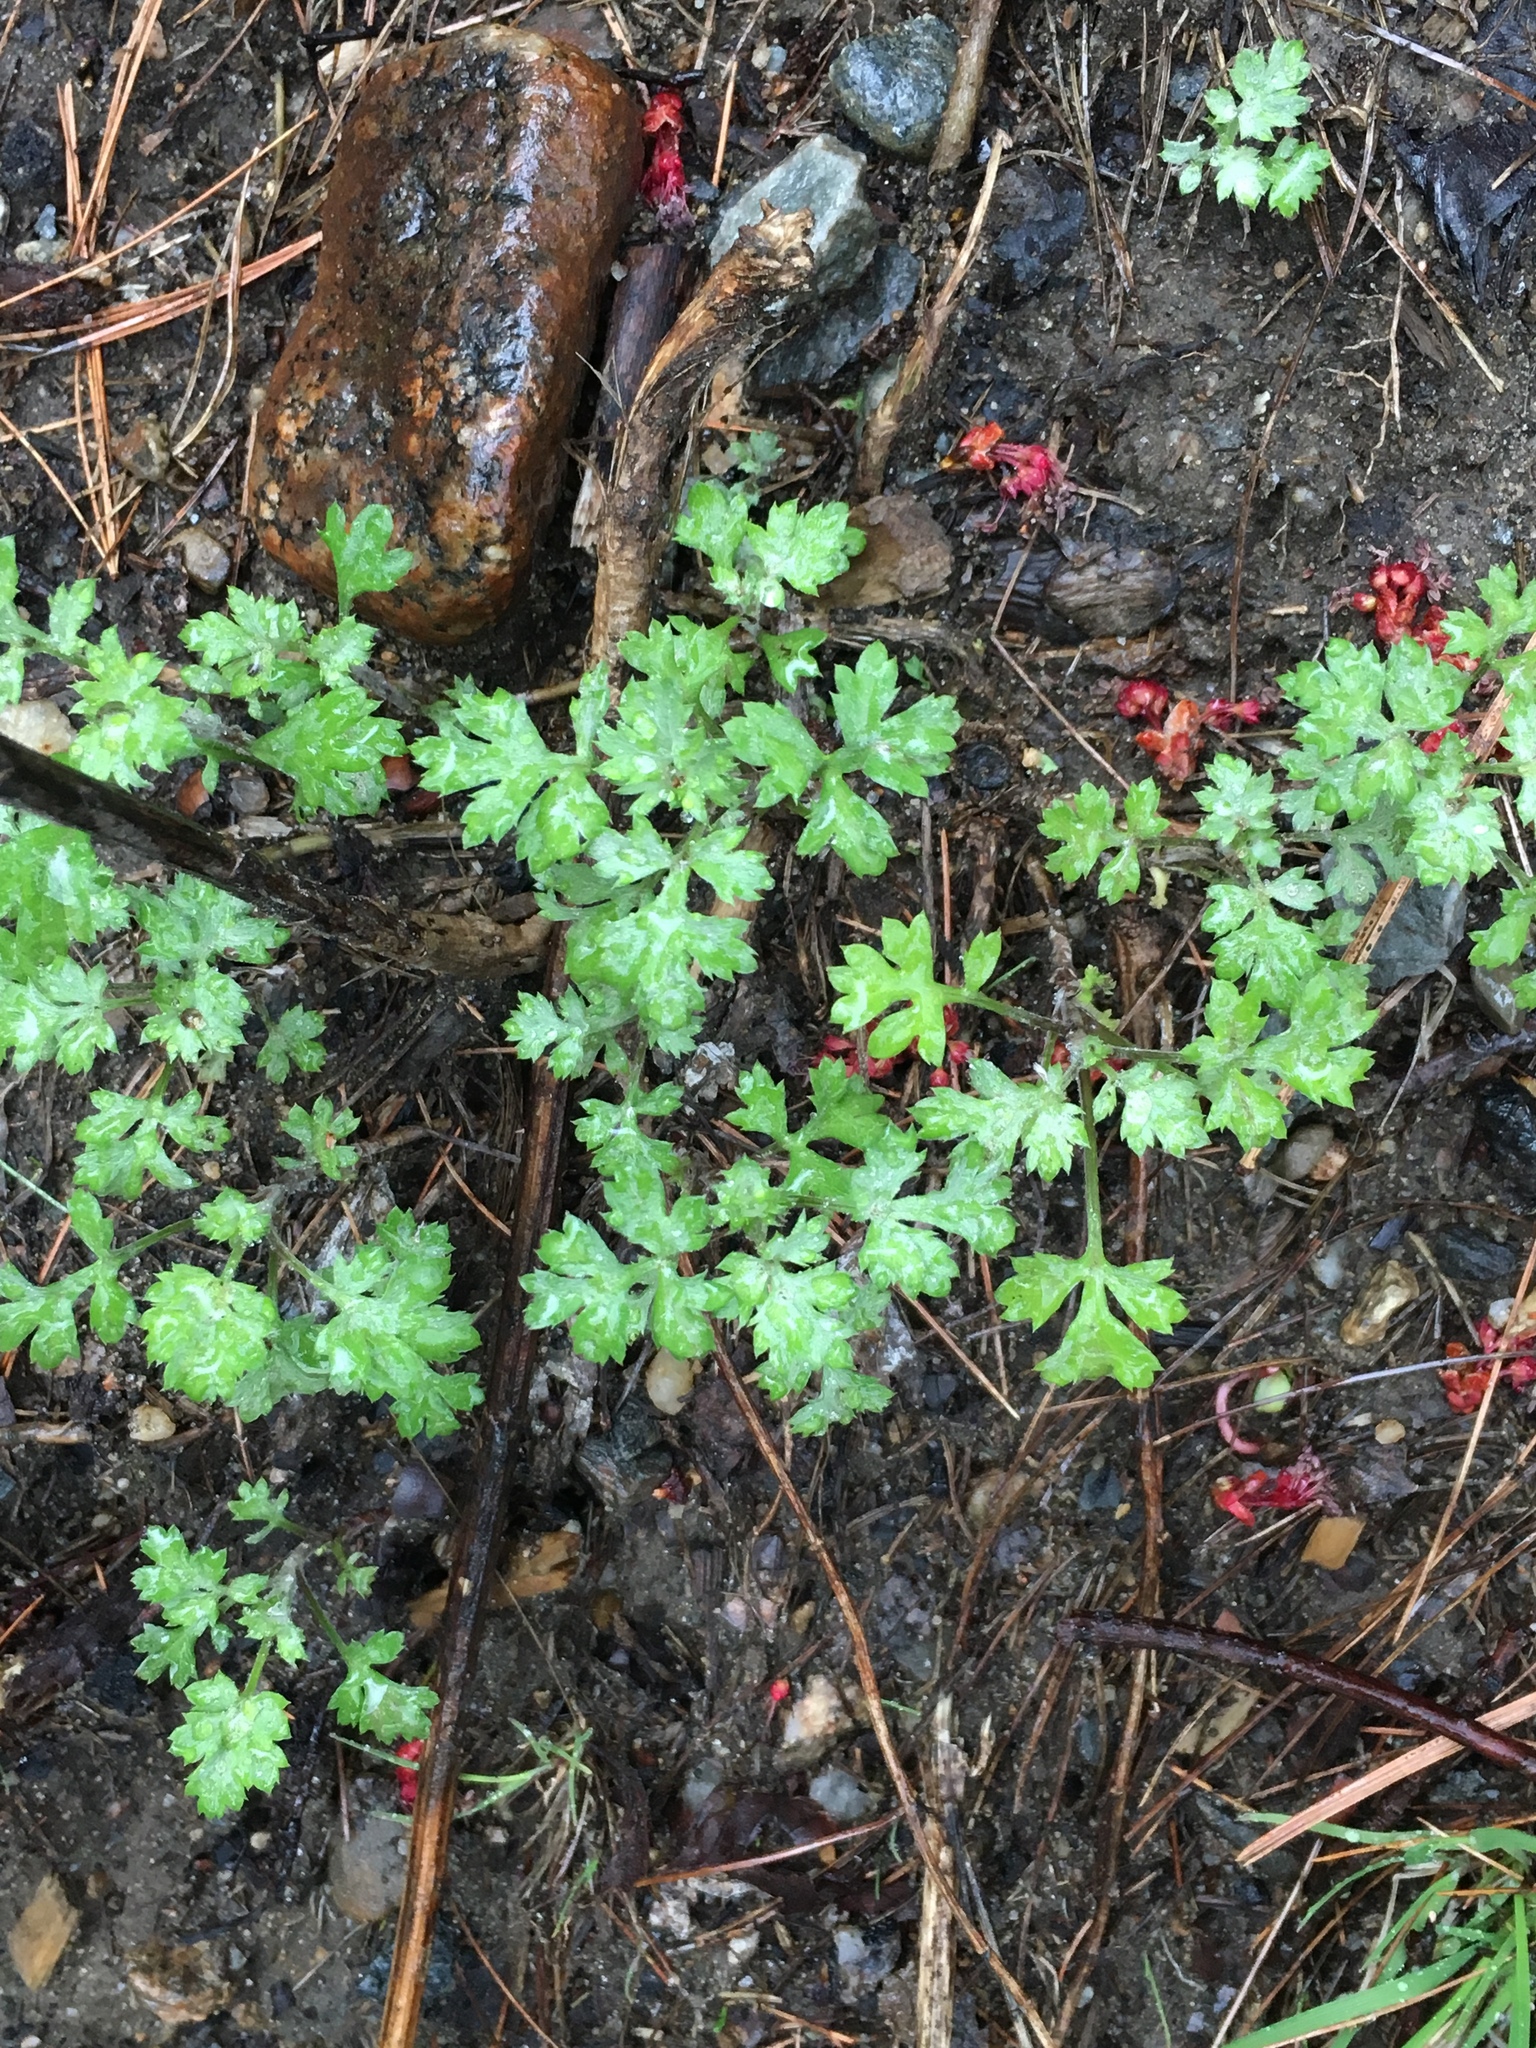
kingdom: Plantae
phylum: Tracheophyta
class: Magnoliopsida
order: Asterales
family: Asteraceae
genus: Artemisia
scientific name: Artemisia vulgaris
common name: Mugwort
